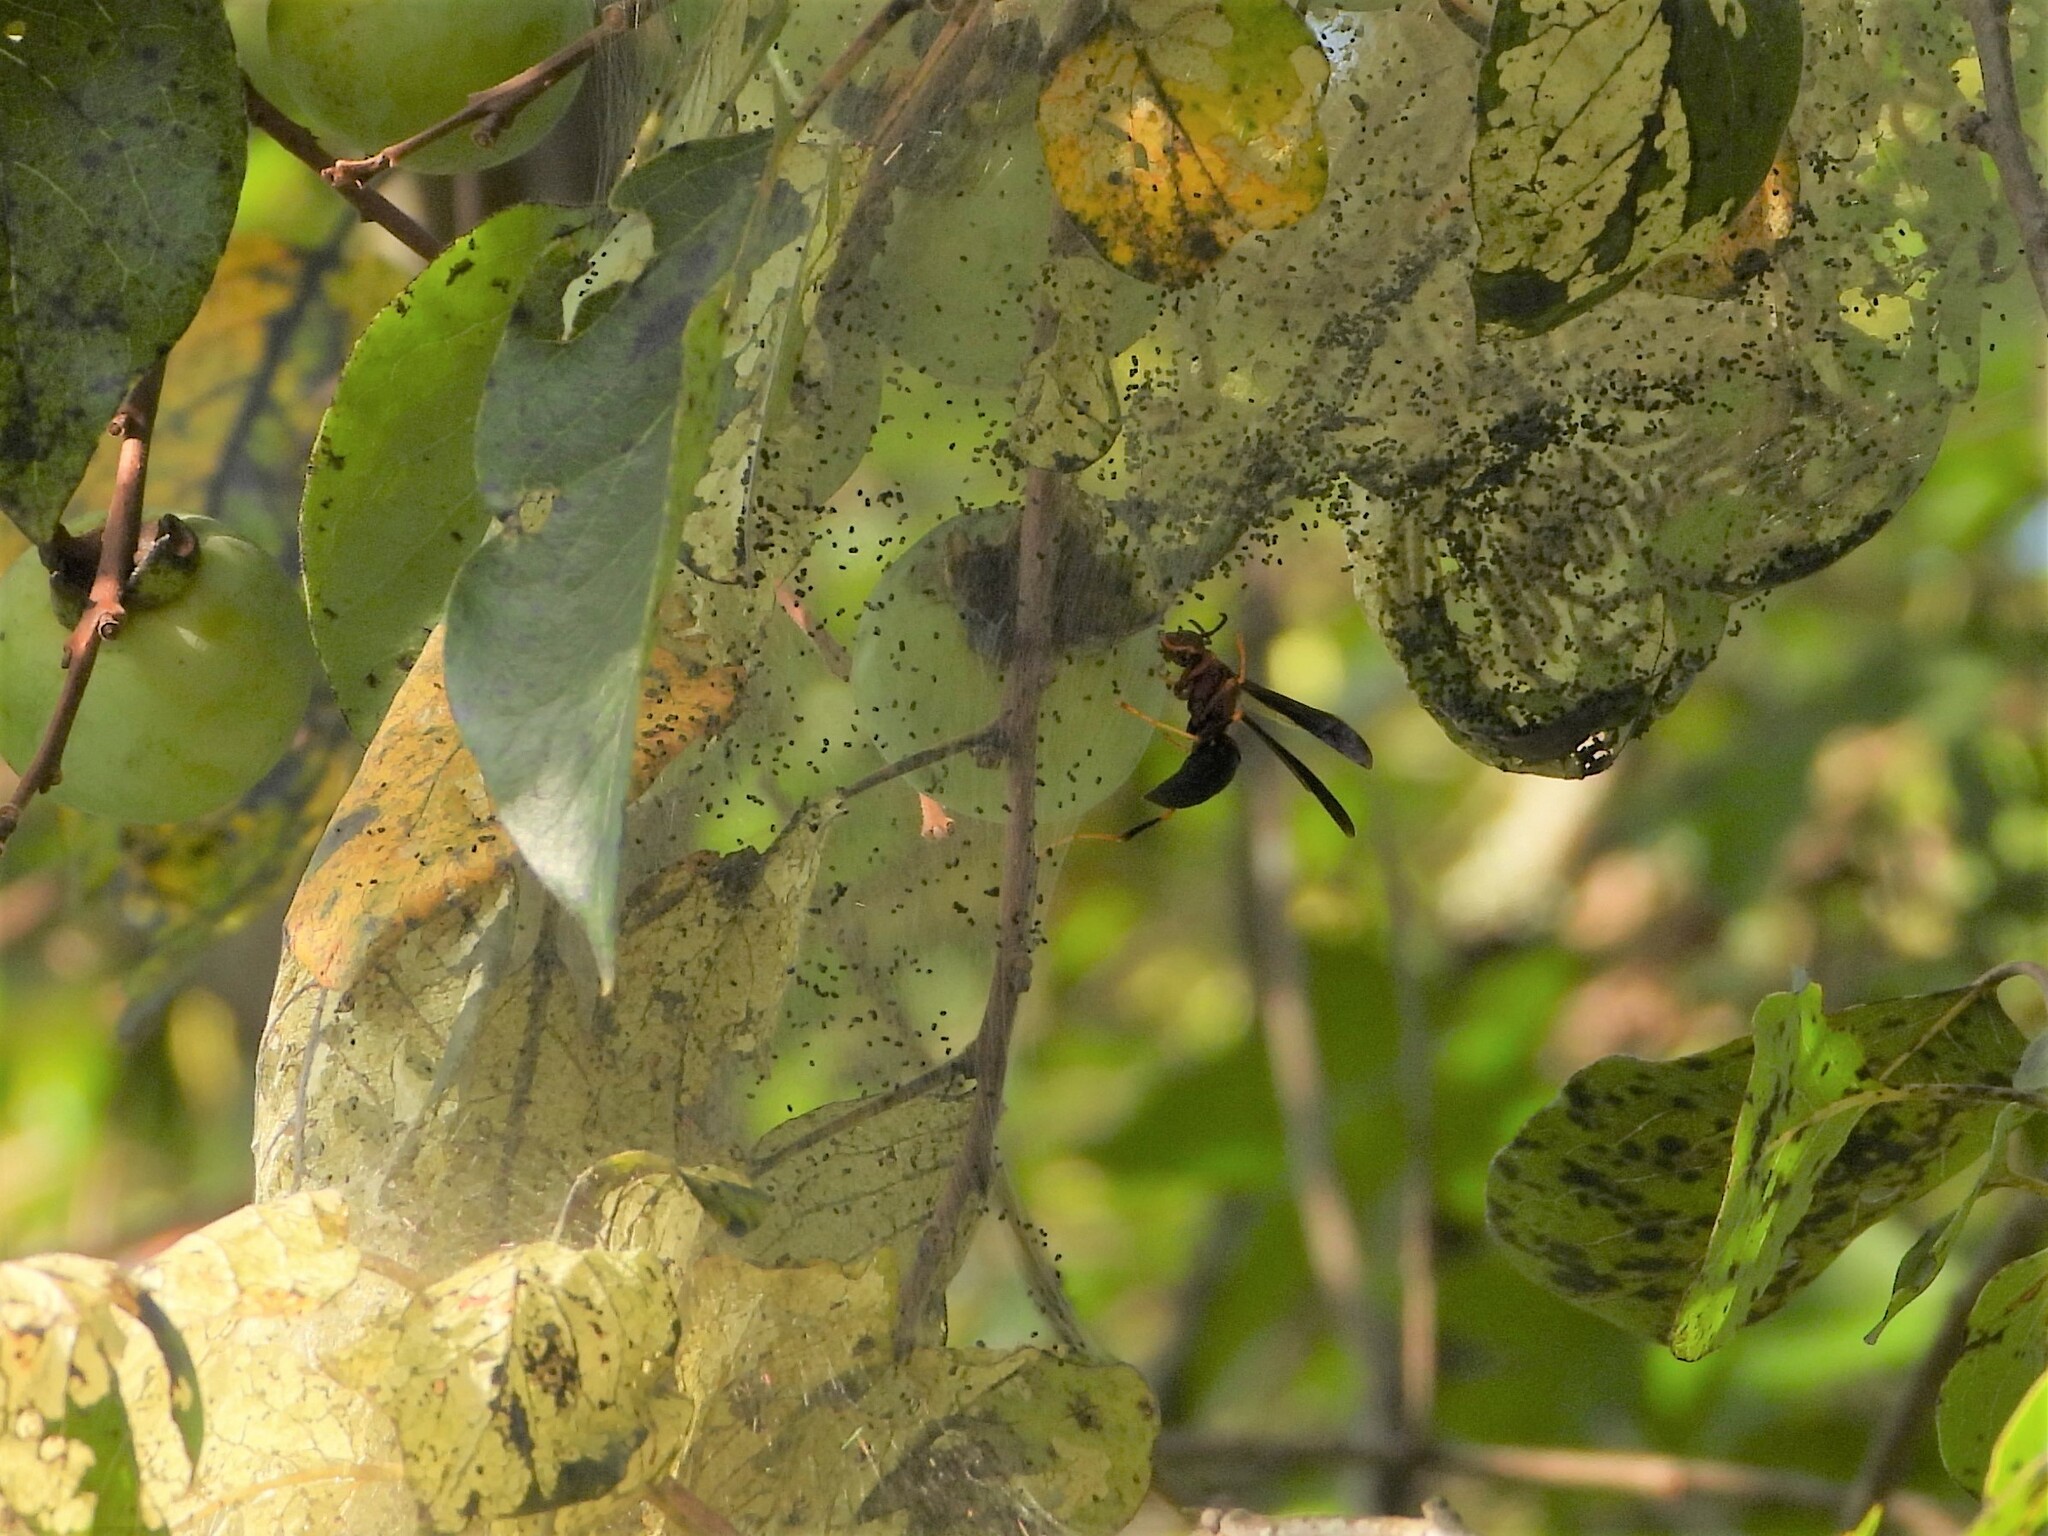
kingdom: Animalia
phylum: Arthropoda
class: Insecta
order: Hymenoptera
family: Eumenidae
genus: Polistes
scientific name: Polistes metricus
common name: Metric paper wasp
